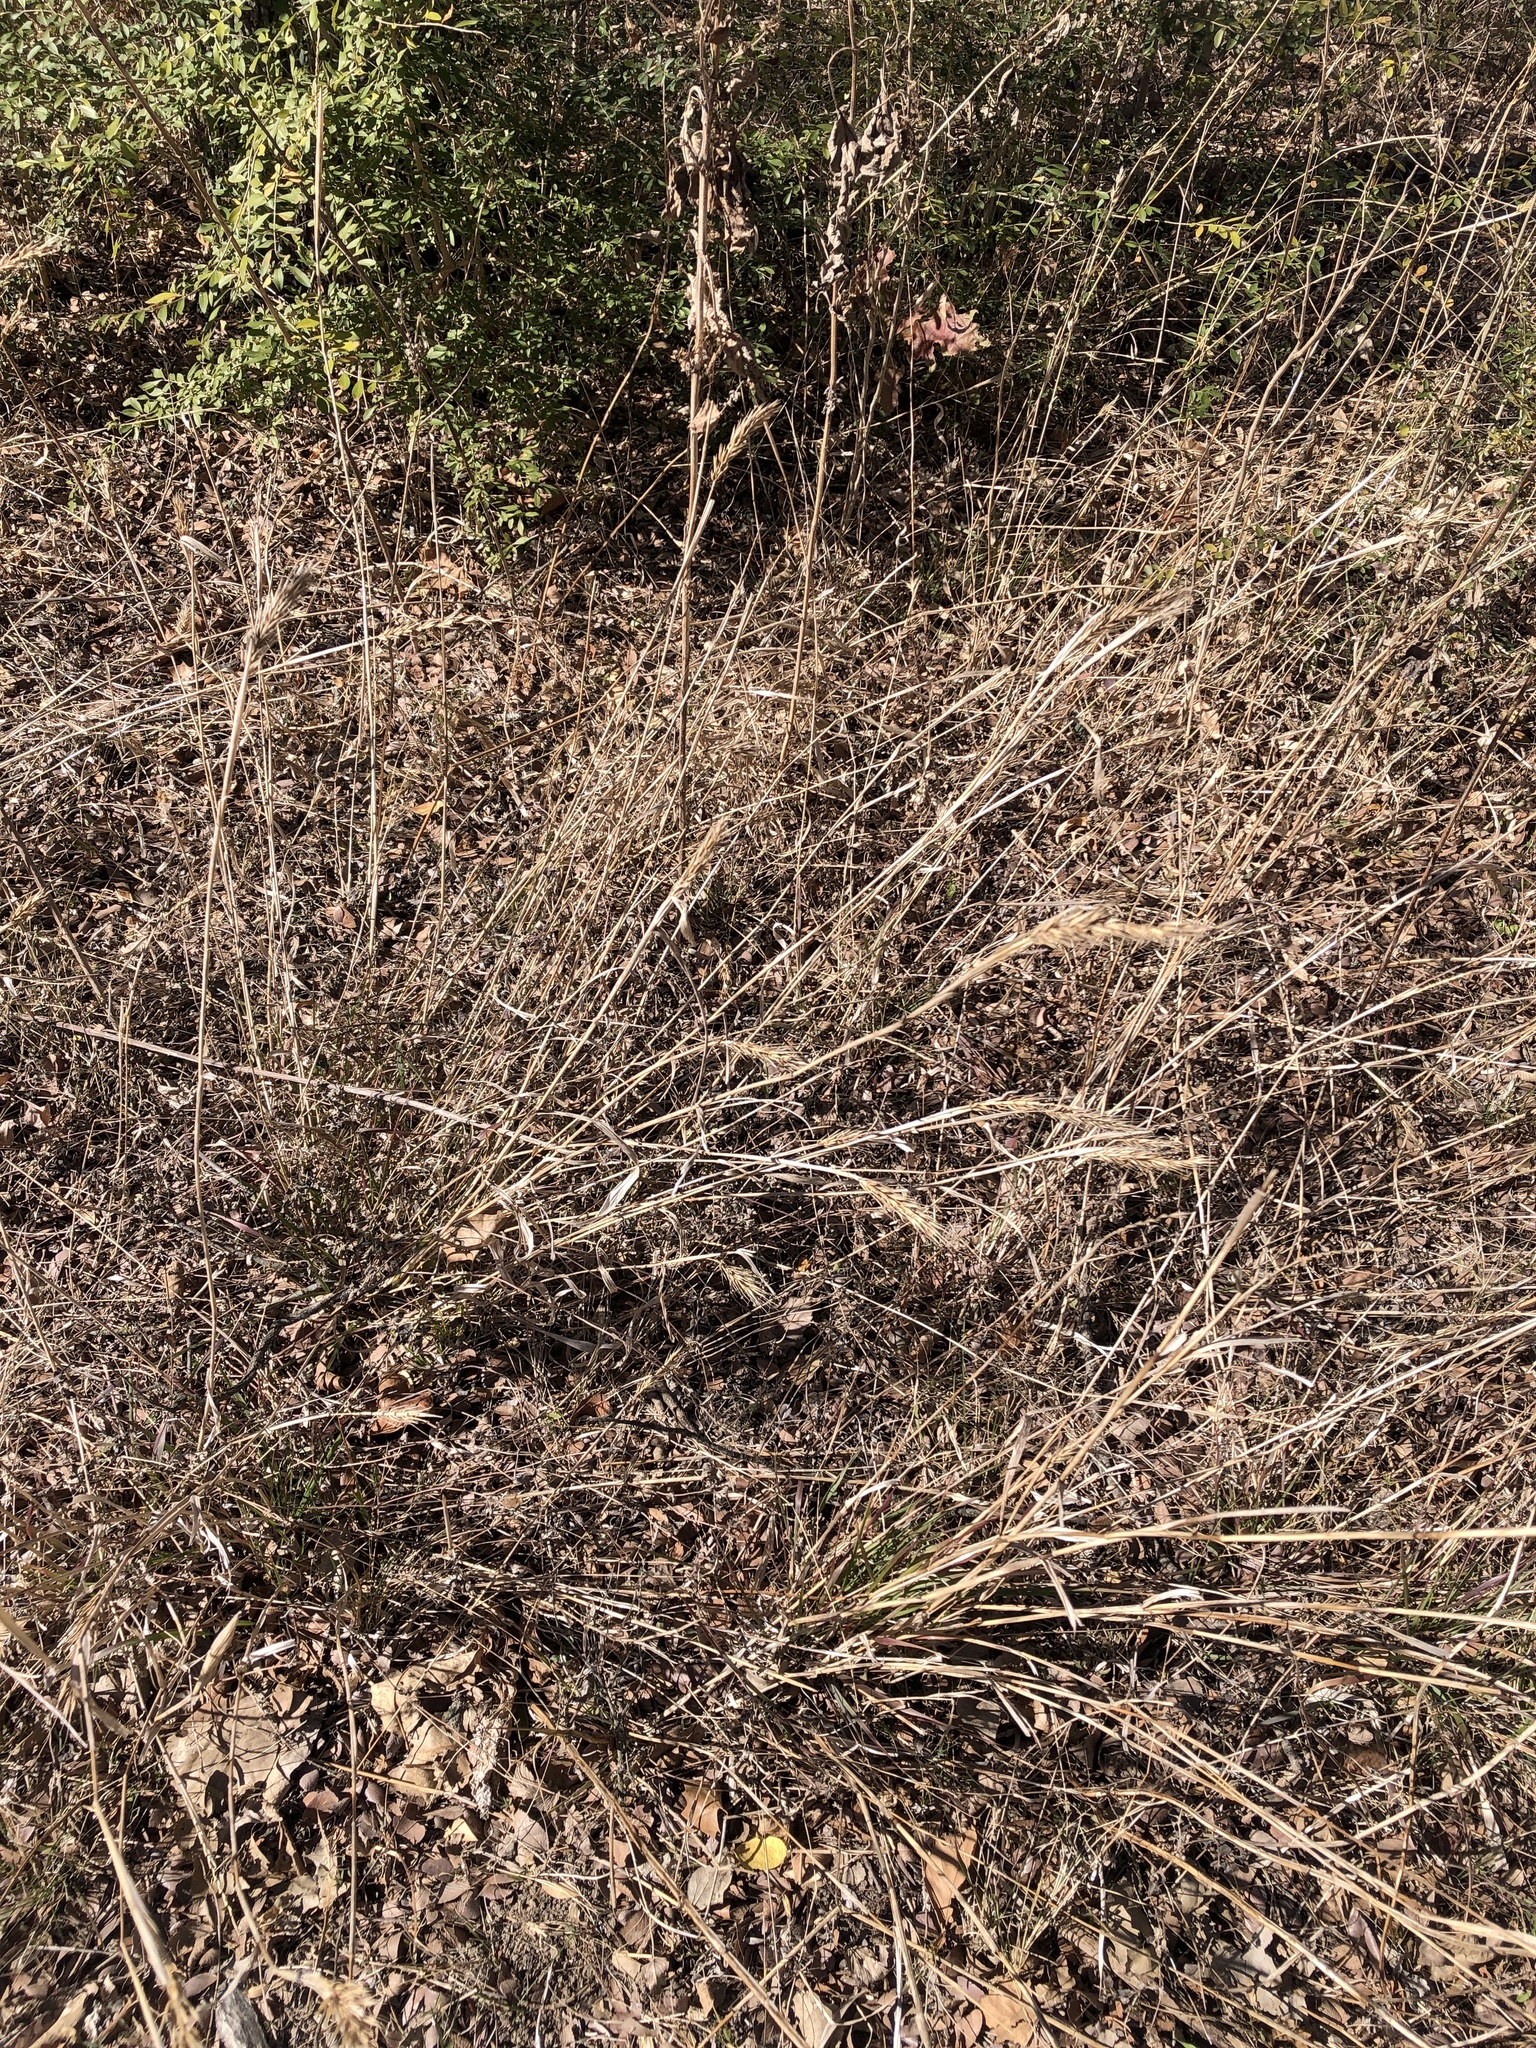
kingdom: Plantae
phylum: Tracheophyta
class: Liliopsida
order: Poales
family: Poaceae
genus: Elymus
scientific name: Elymus virginicus
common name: Common eastern wildrye
